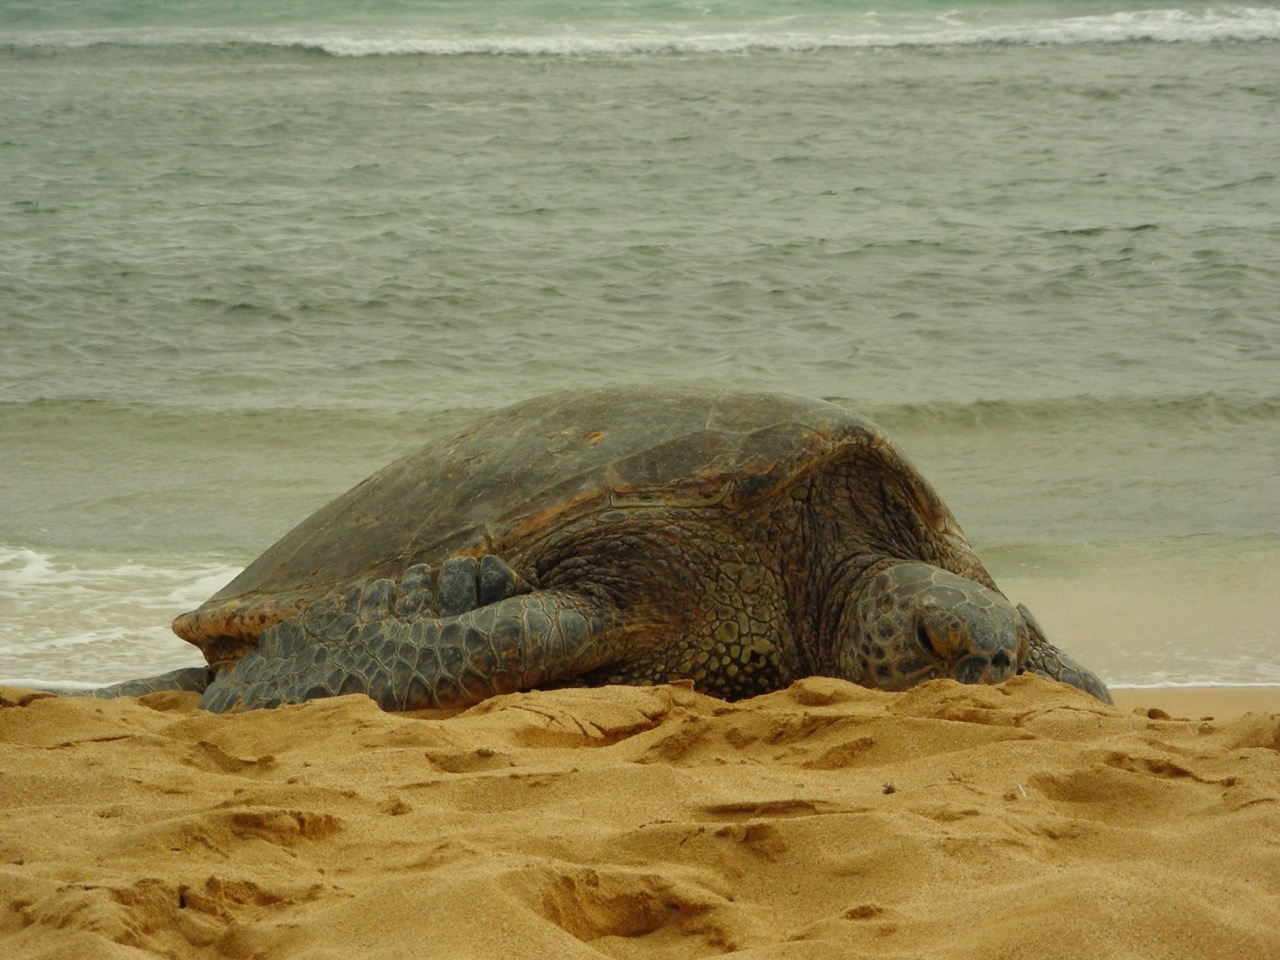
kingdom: Animalia
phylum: Chordata
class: Testudines
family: Cheloniidae
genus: Chelonia
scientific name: Chelonia mydas
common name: Green turtle
